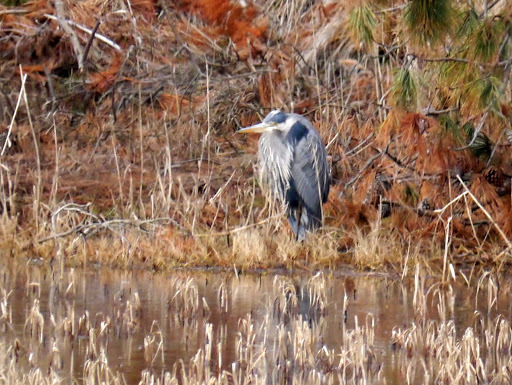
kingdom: Animalia
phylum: Chordata
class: Aves
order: Pelecaniformes
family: Ardeidae
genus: Ardea
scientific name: Ardea herodias
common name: Great blue heron
